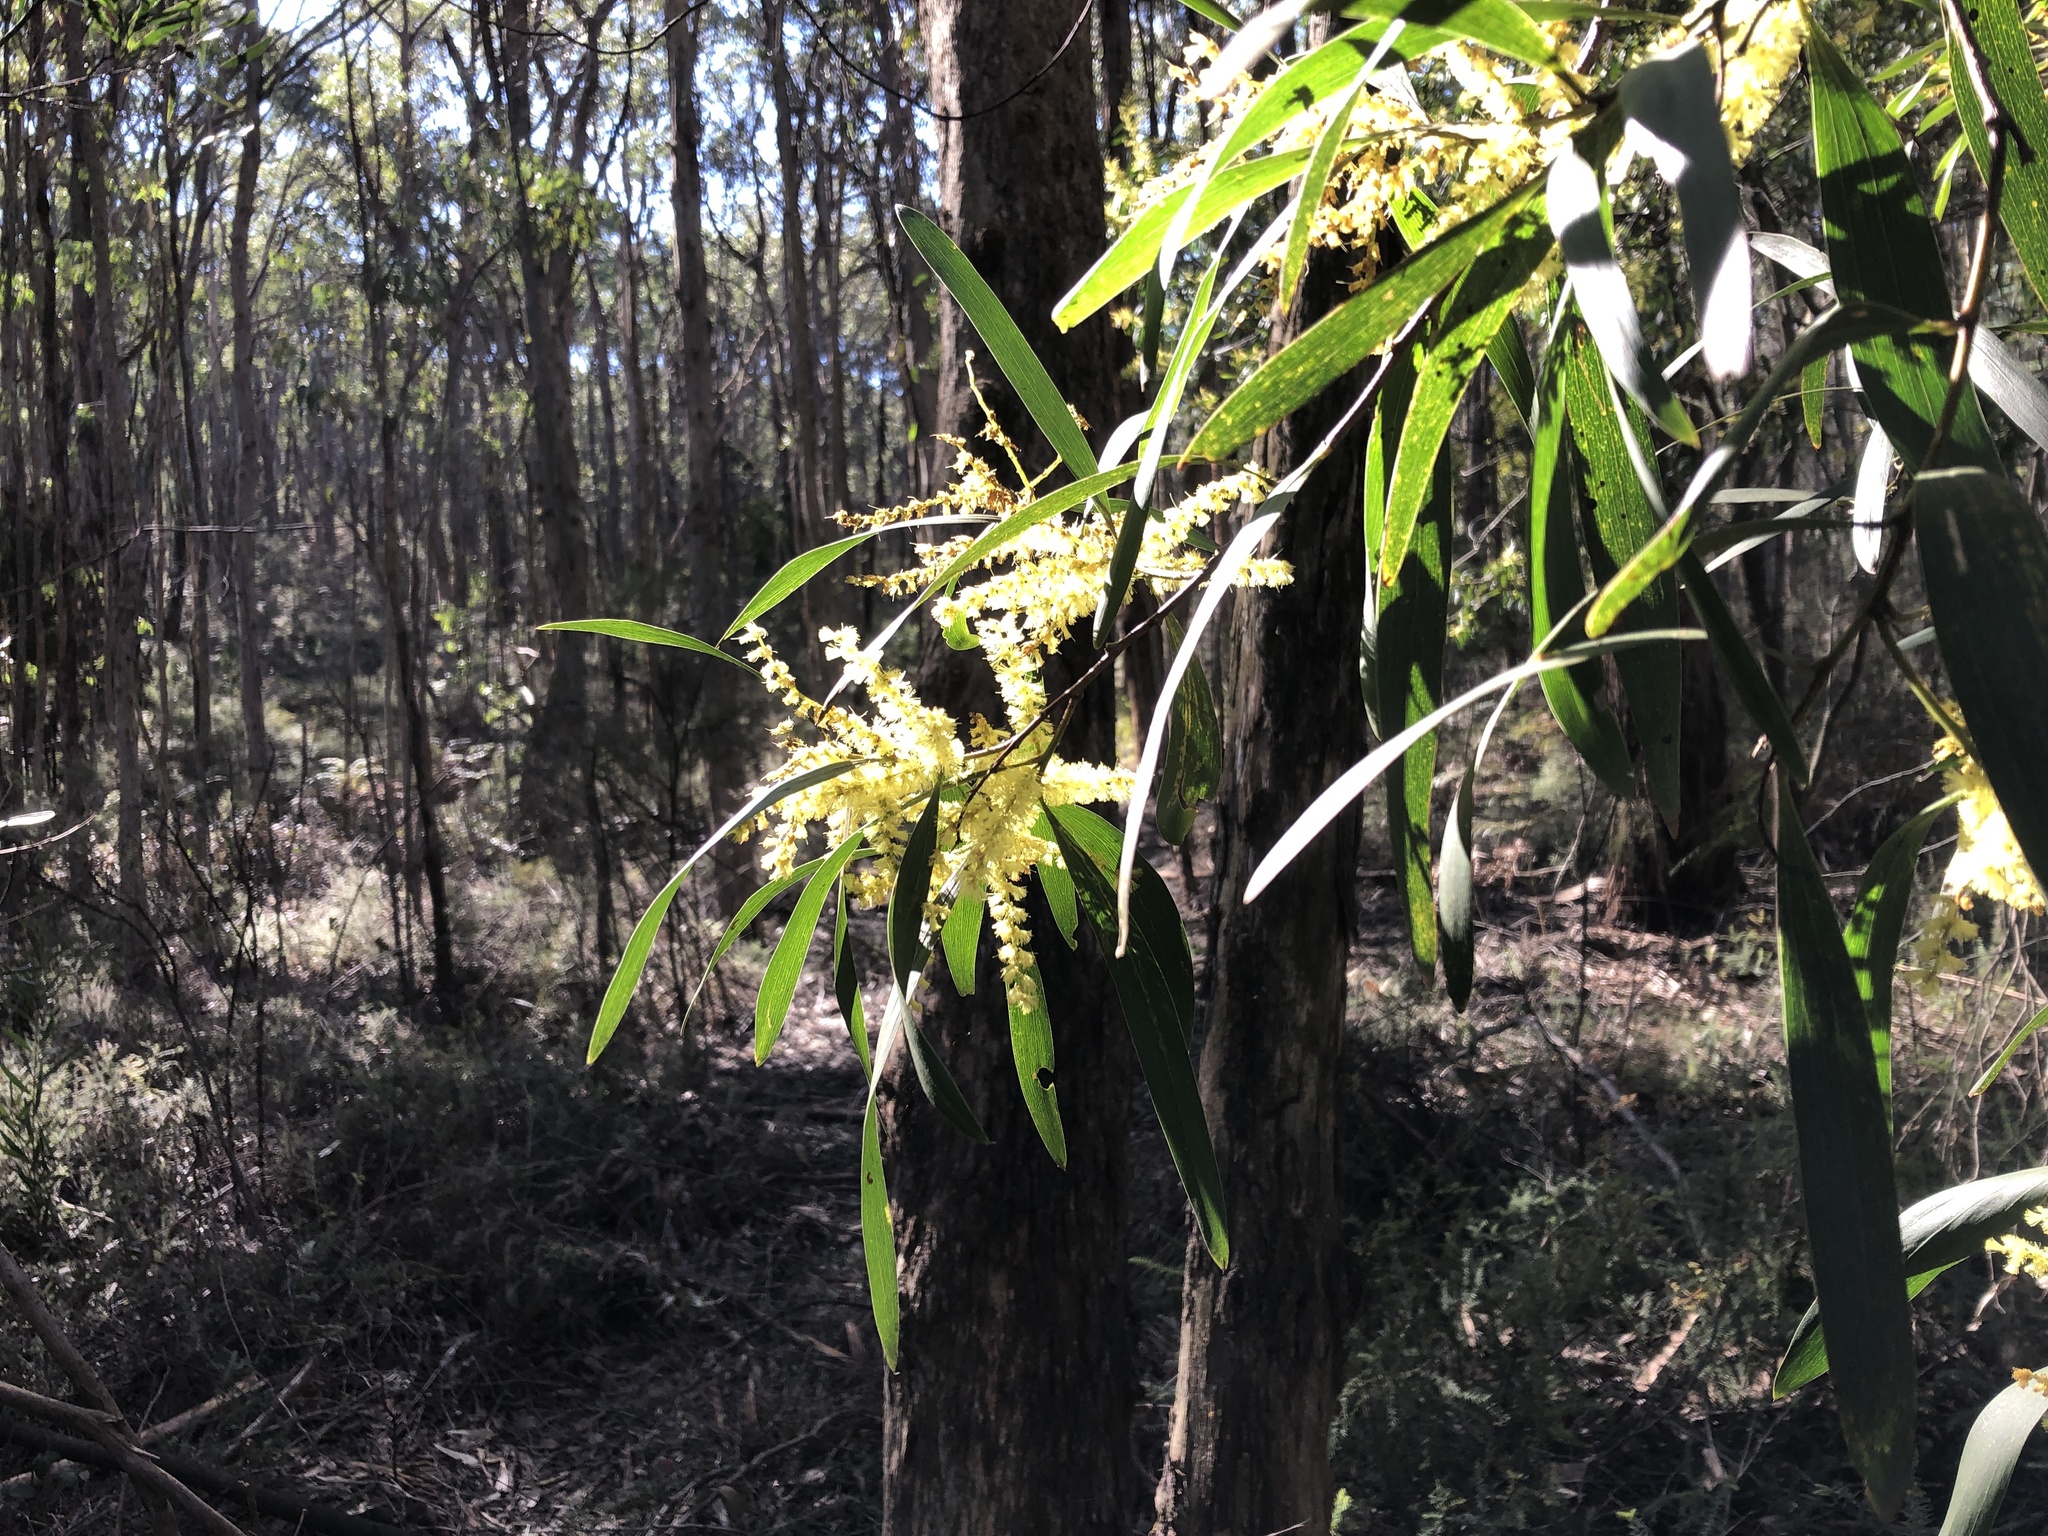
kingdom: Plantae
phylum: Tracheophyta
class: Magnoliopsida
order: Fabales
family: Fabaceae
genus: Acacia
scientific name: Acacia longifolia
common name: Sydney golden wattle
